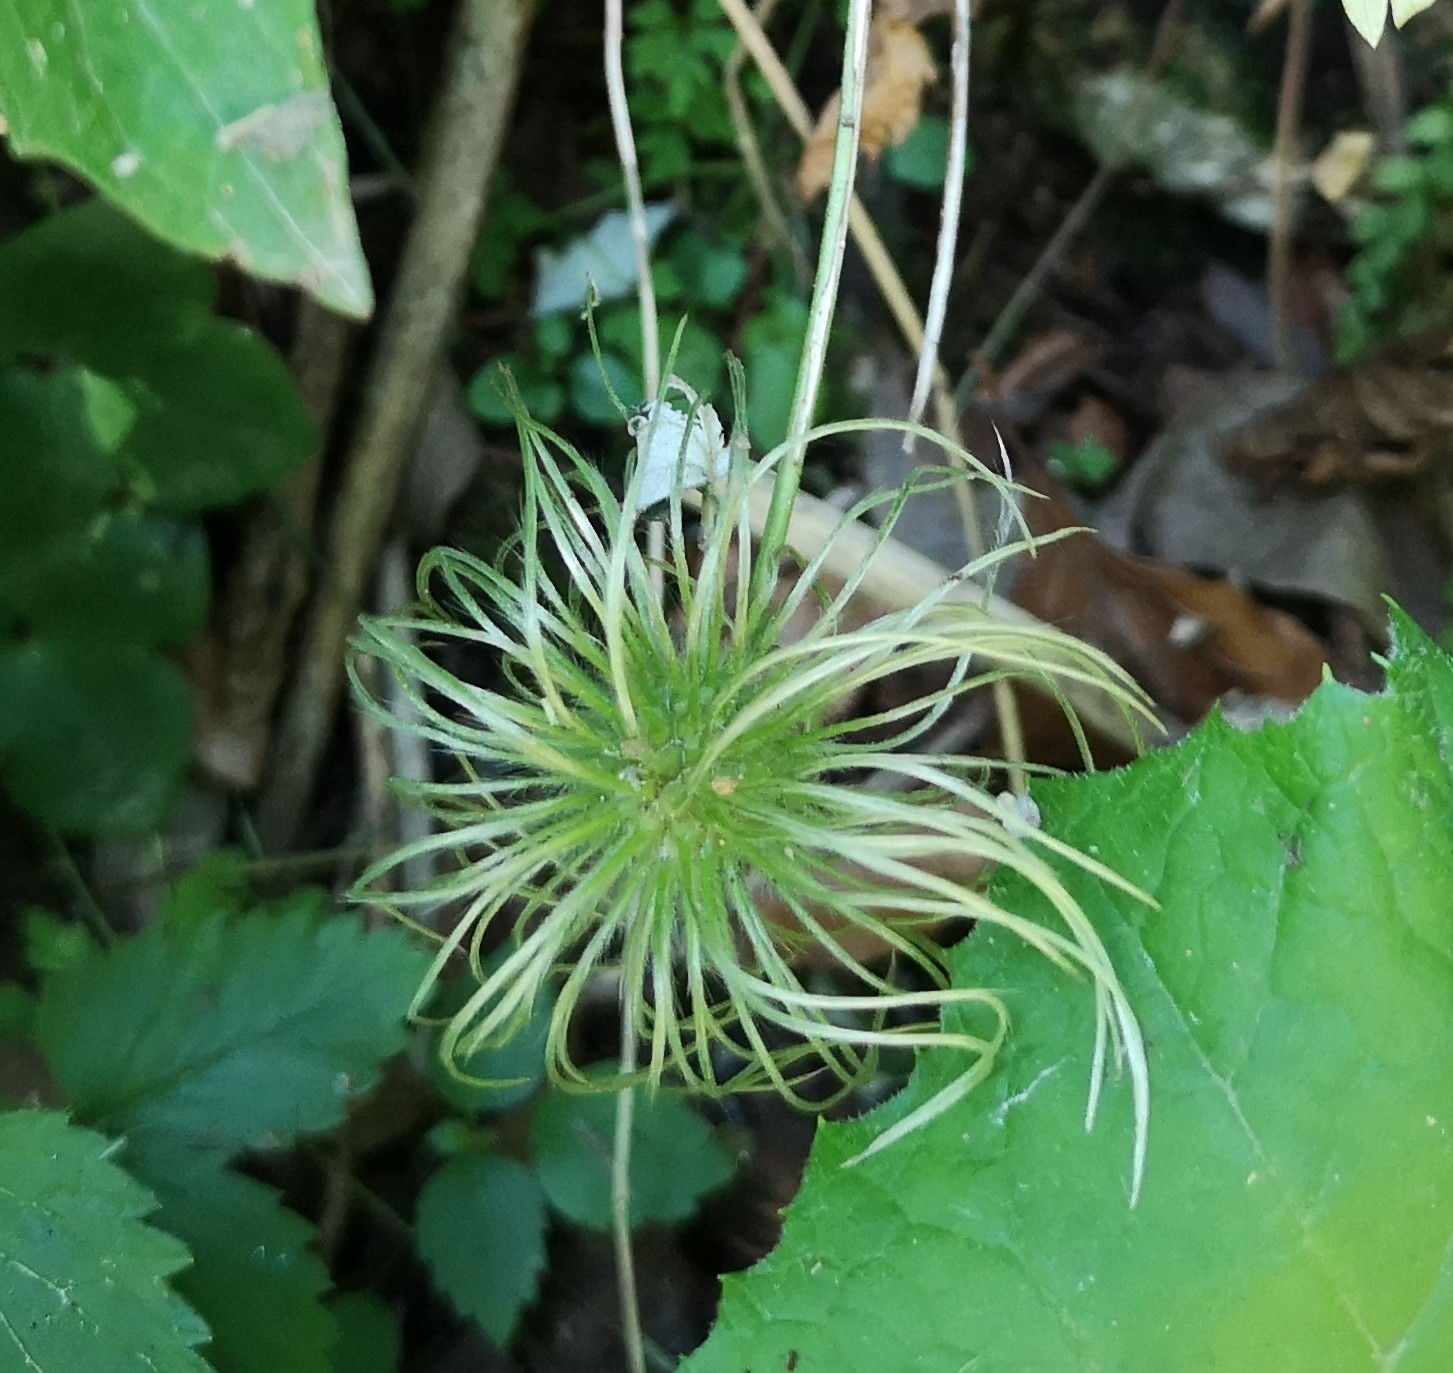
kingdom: Plantae
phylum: Tracheophyta
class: Magnoliopsida
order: Ranunculales
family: Ranunculaceae
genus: Clematis
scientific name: Clematis alpina
